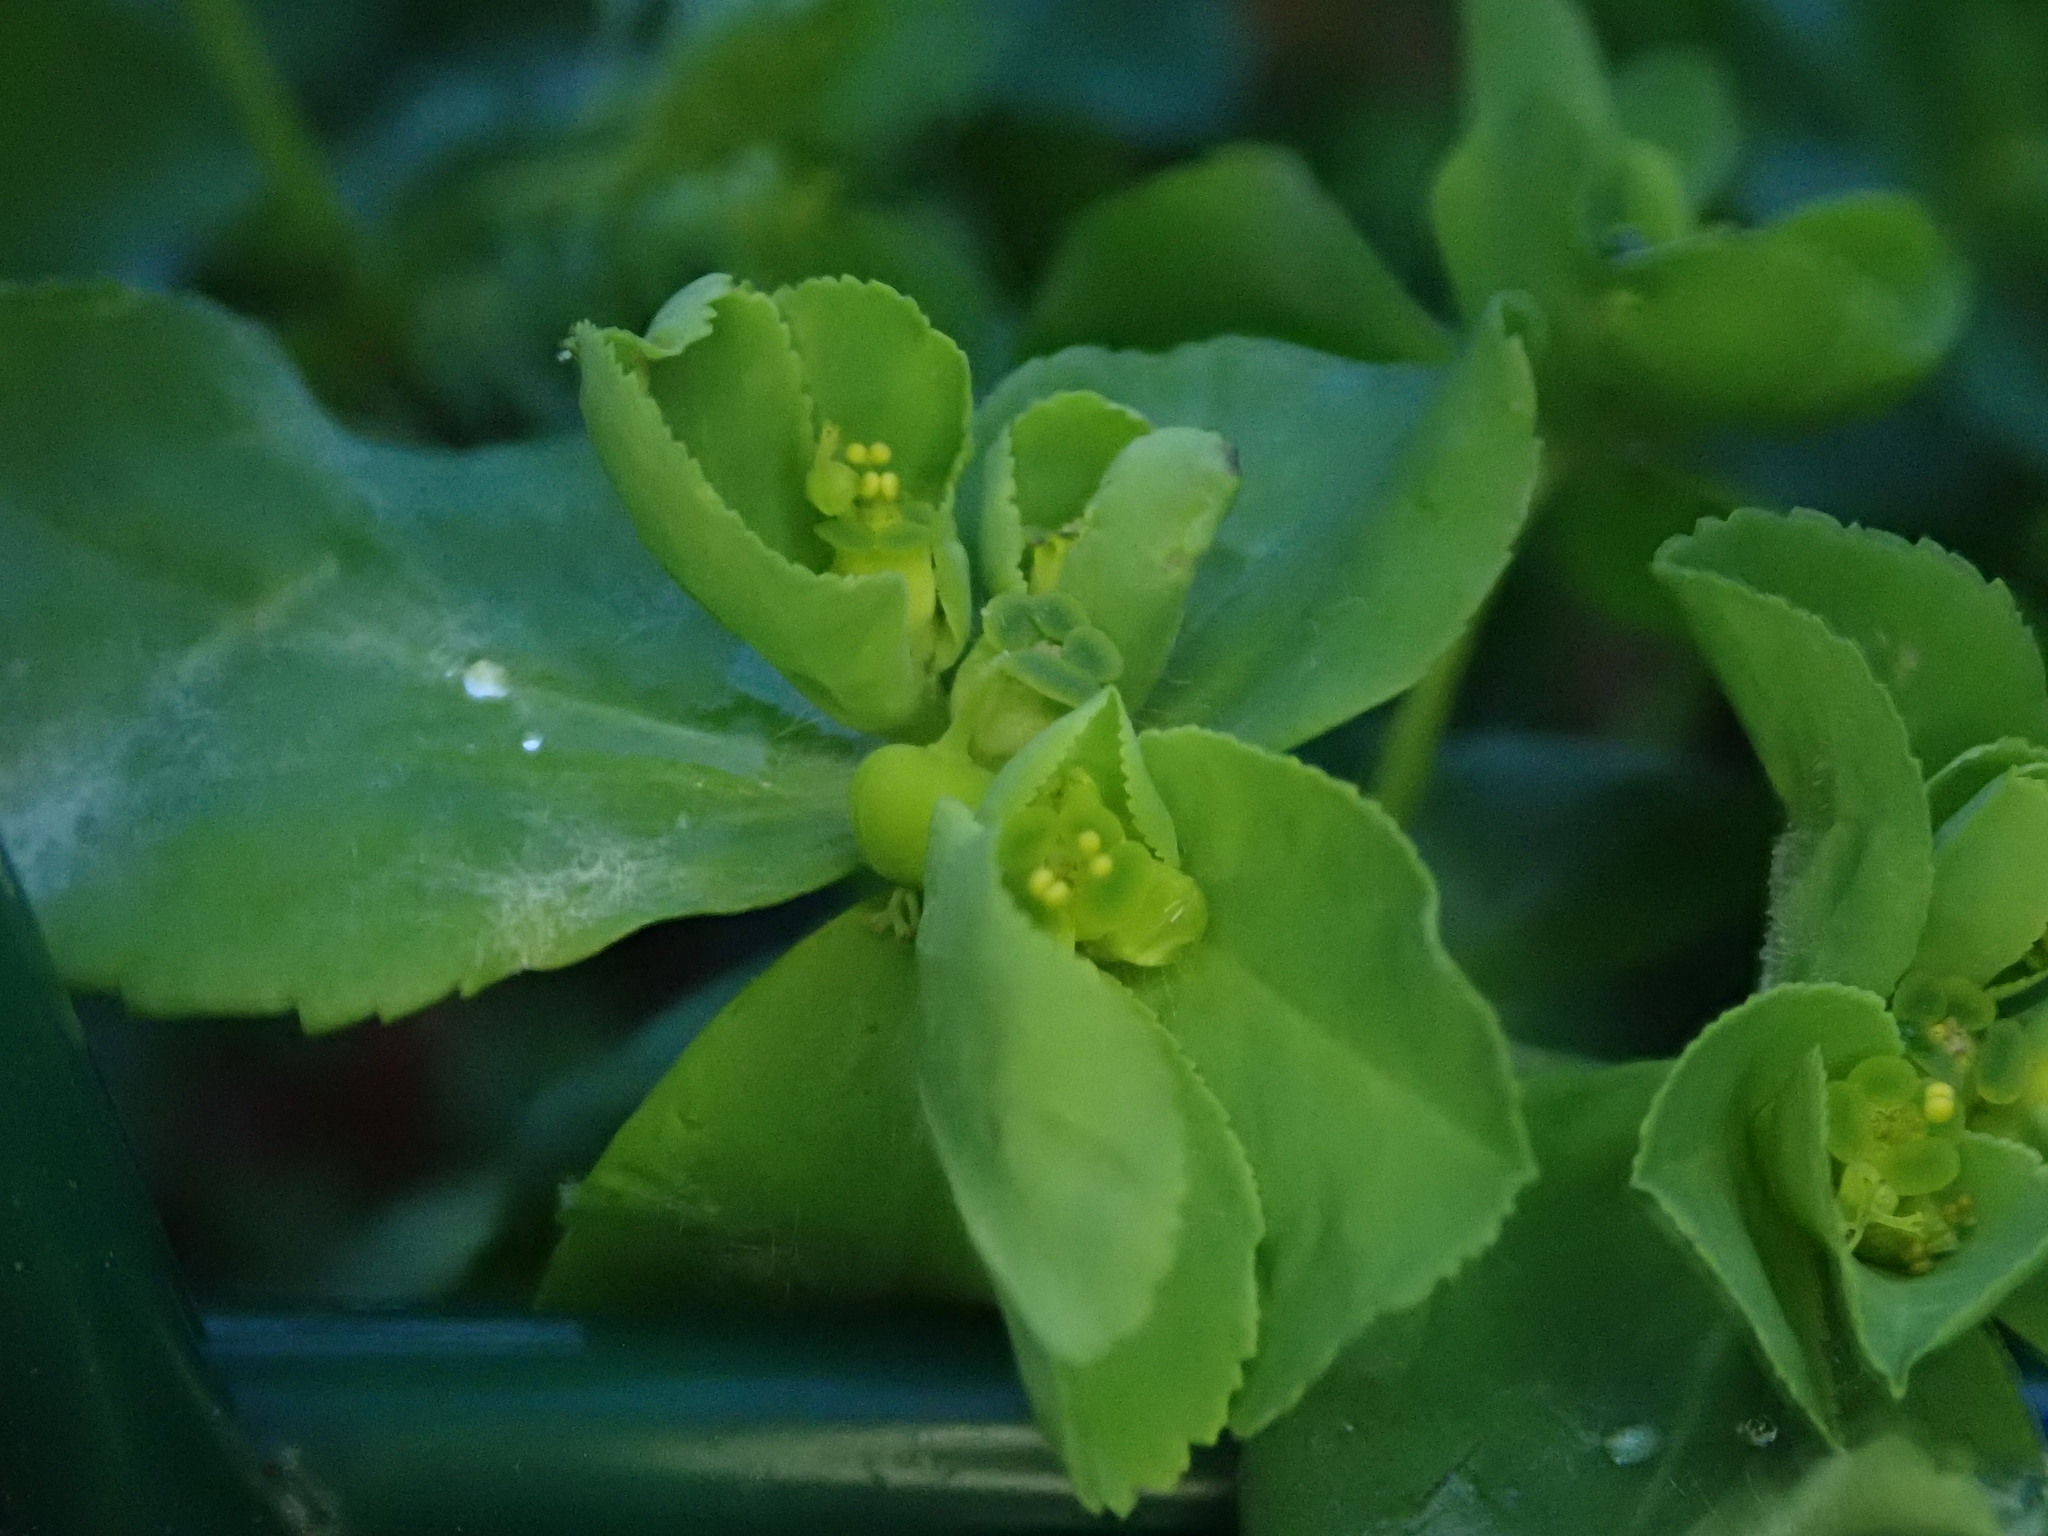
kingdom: Plantae
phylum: Tracheophyta
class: Magnoliopsida
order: Malpighiales
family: Euphorbiaceae
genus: Euphorbia
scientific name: Euphorbia helioscopia
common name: Sun spurge
